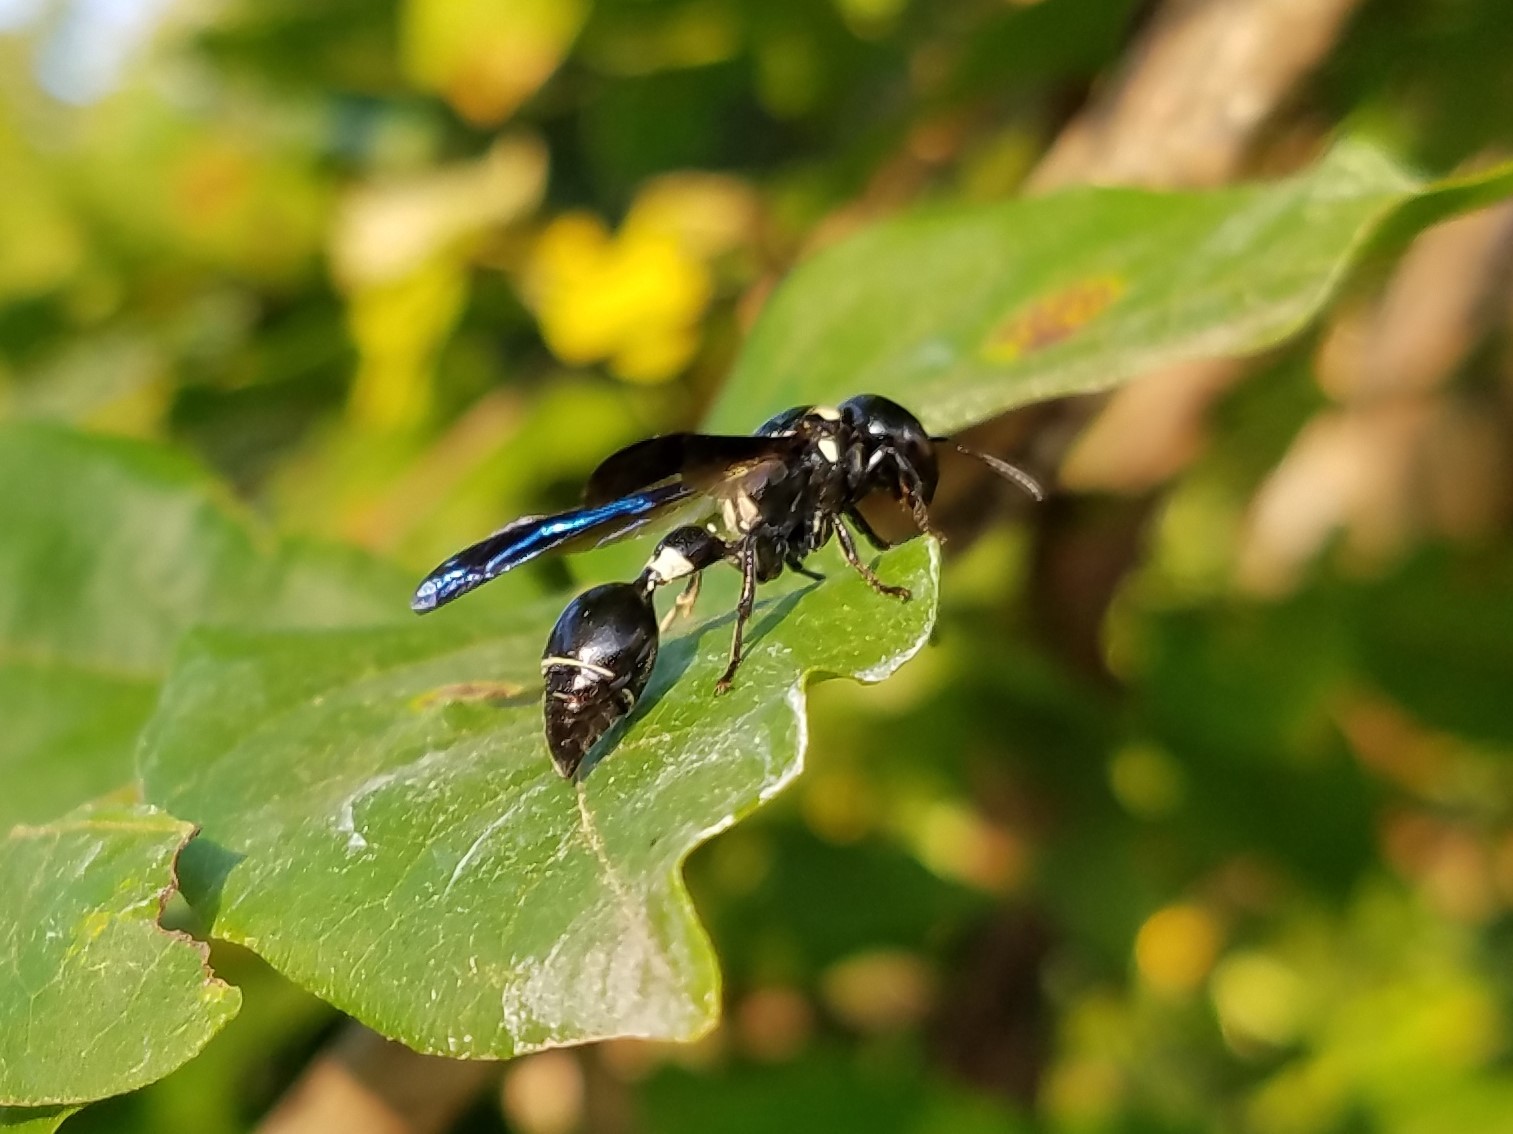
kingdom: Animalia
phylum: Arthropoda
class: Insecta
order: Hymenoptera
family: Eumenidae
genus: Zethus
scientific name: Zethus spinipes
